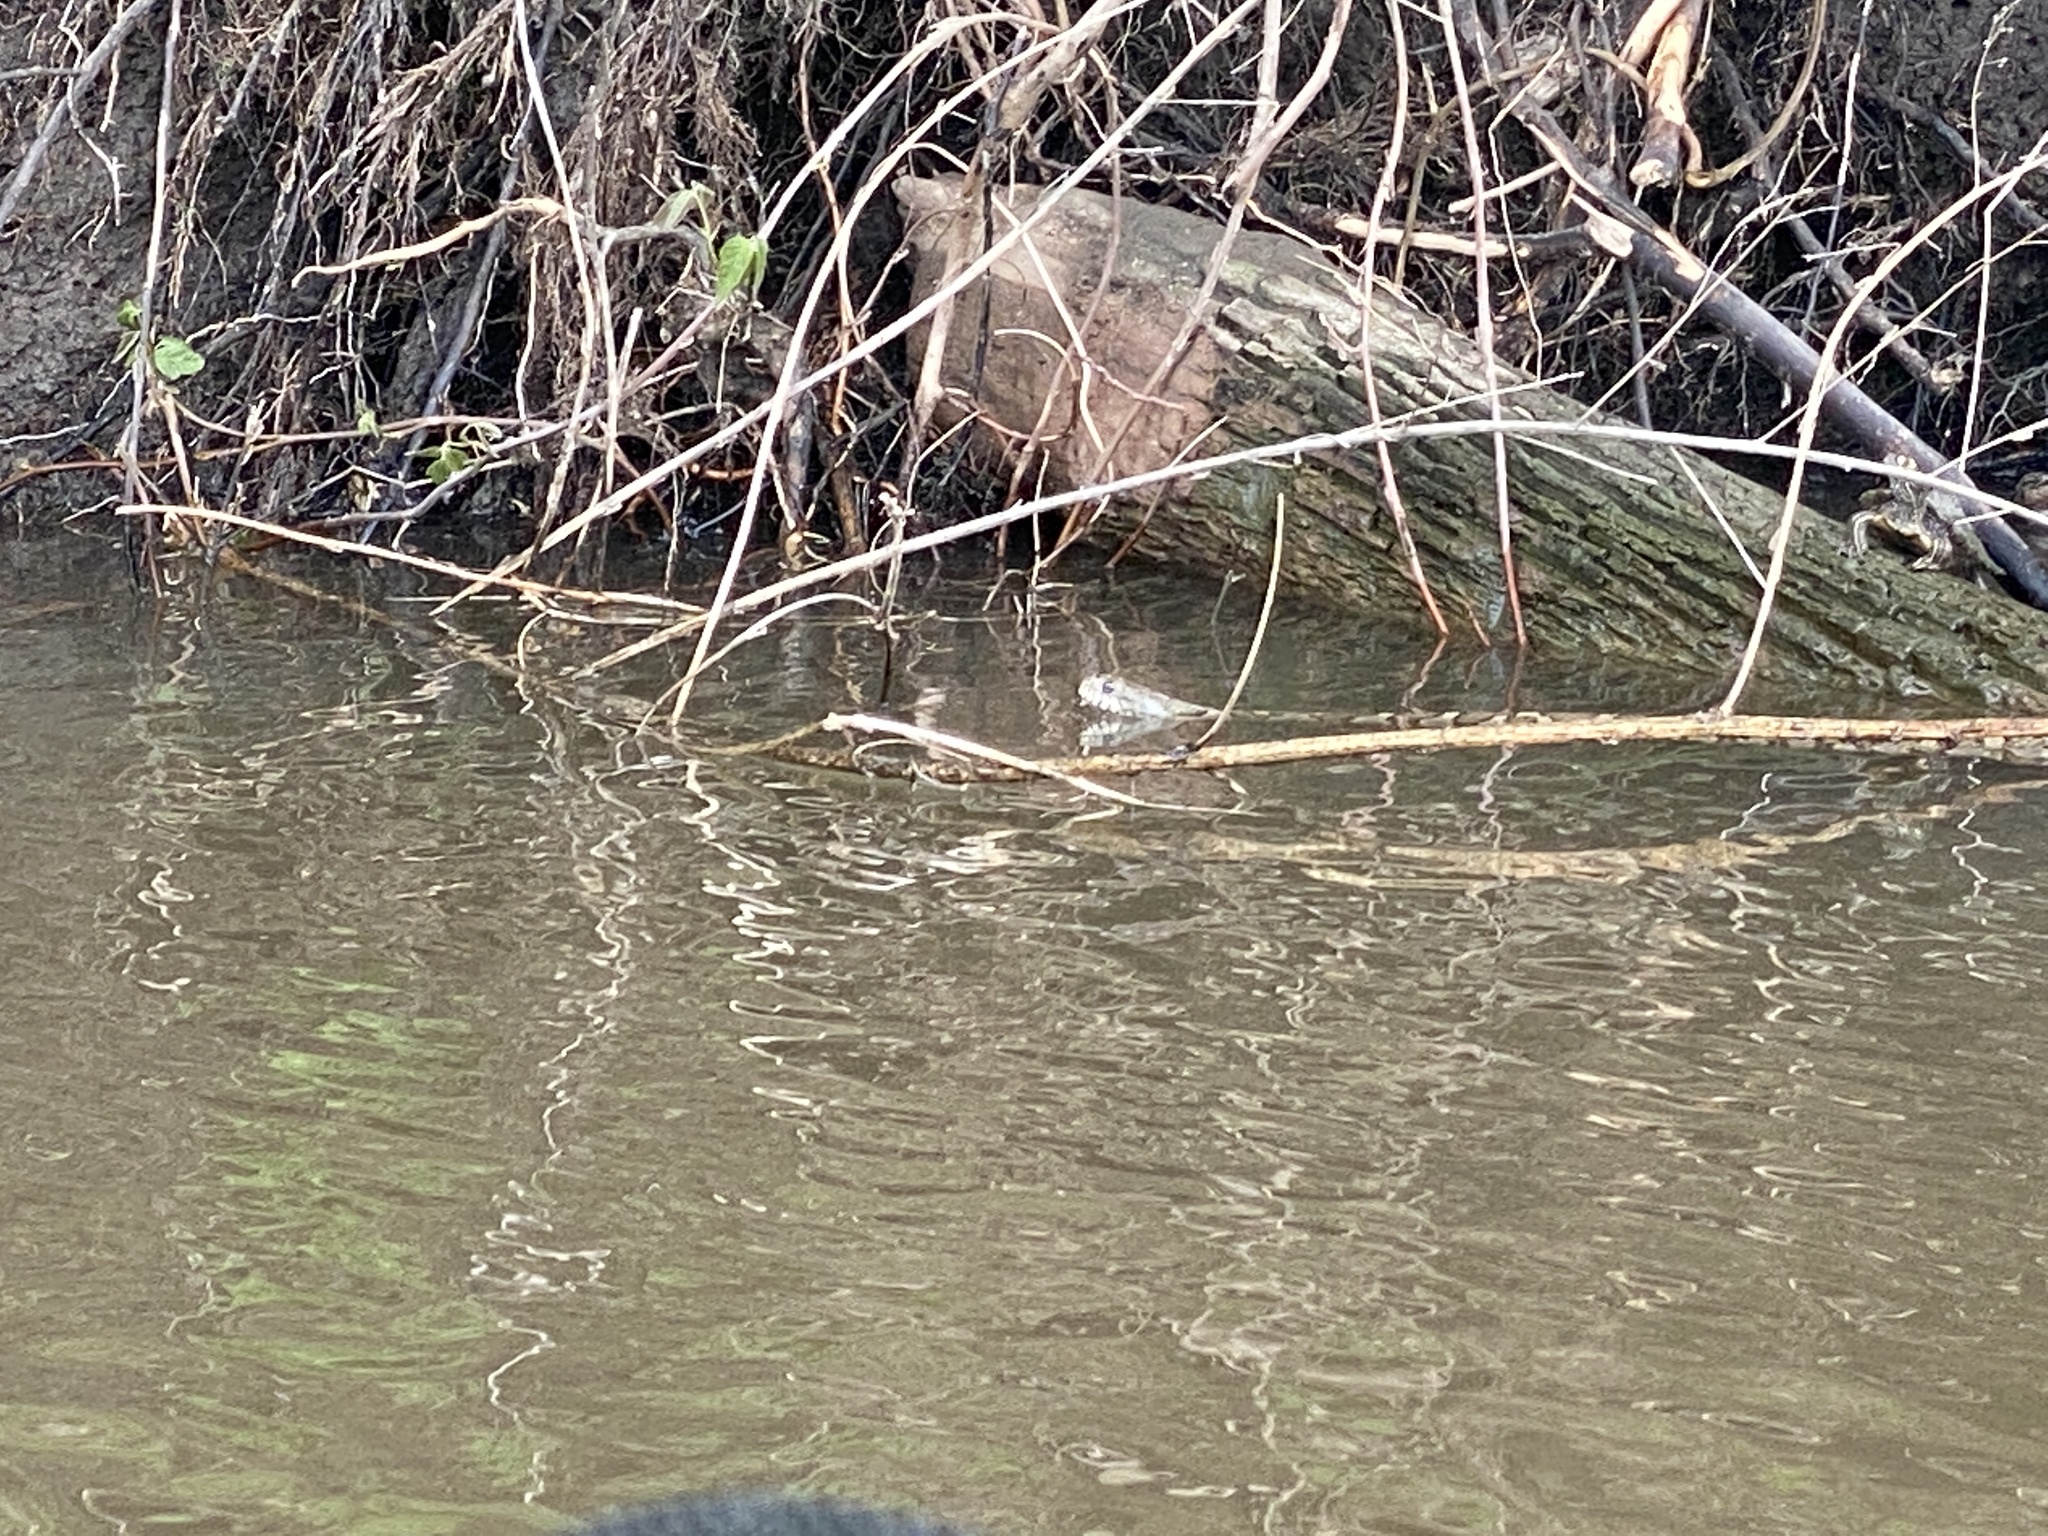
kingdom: Animalia
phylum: Chordata
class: Squamata
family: Colubridae
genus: Nerodia
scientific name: Nerodia sipedon
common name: Northern water snake
